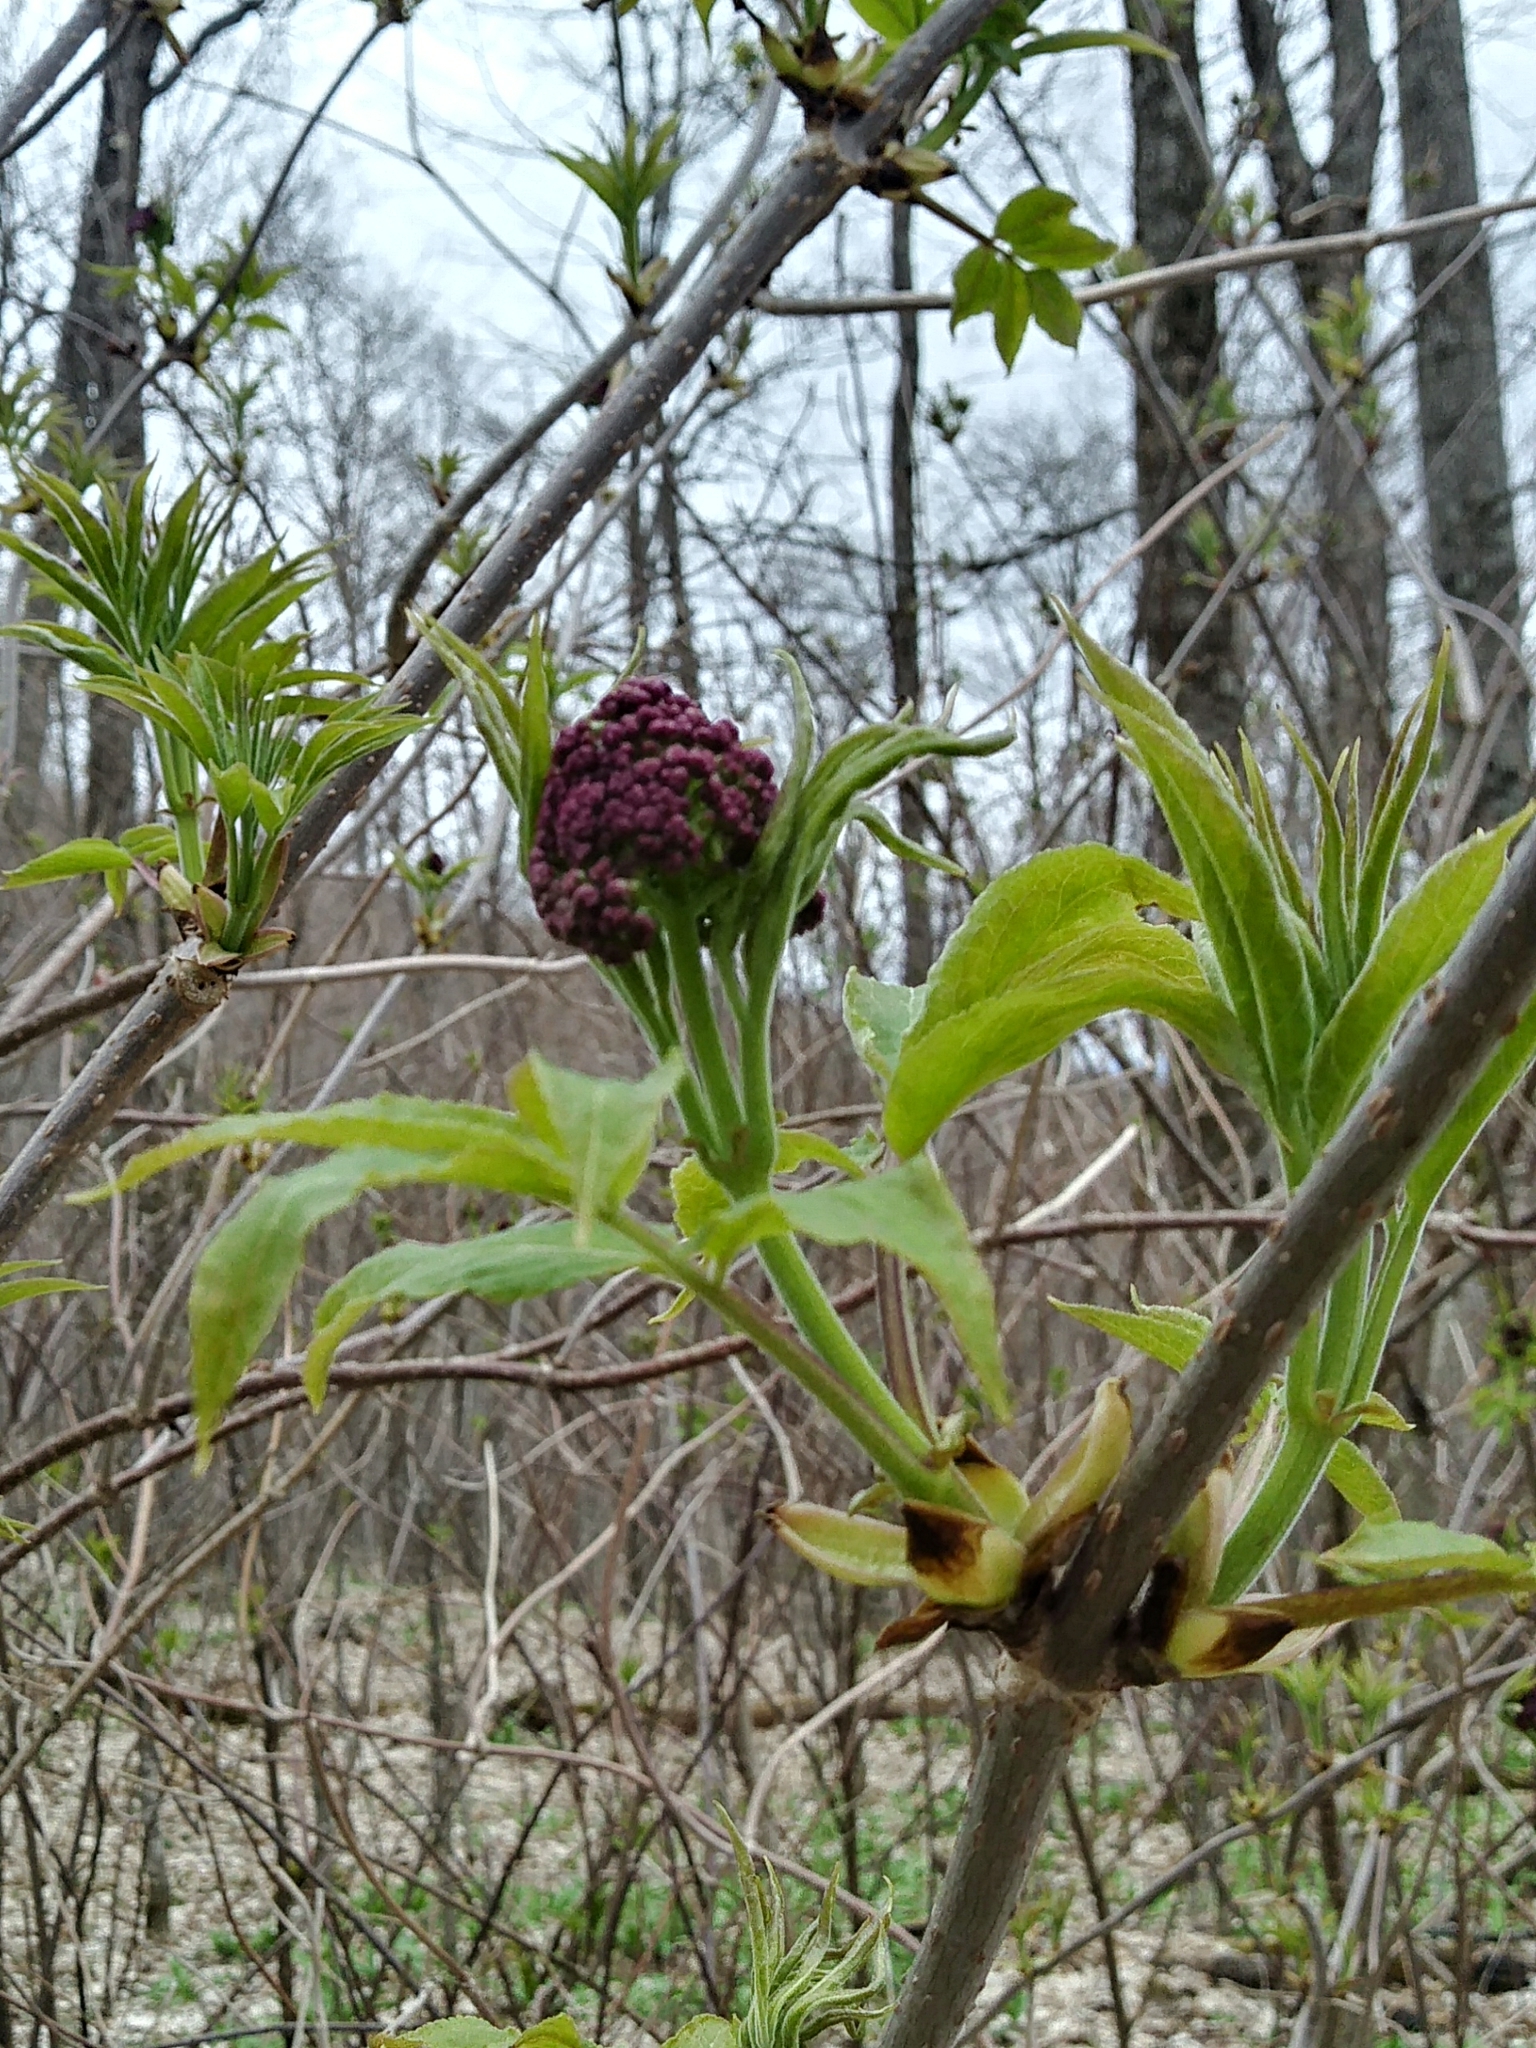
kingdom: Plantae
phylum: Tracheophyta
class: Magnoliopsida
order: Dipsacales
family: Viburnaceae
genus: Sambucus
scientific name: Sambucus racemosa
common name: Red-berried elder
